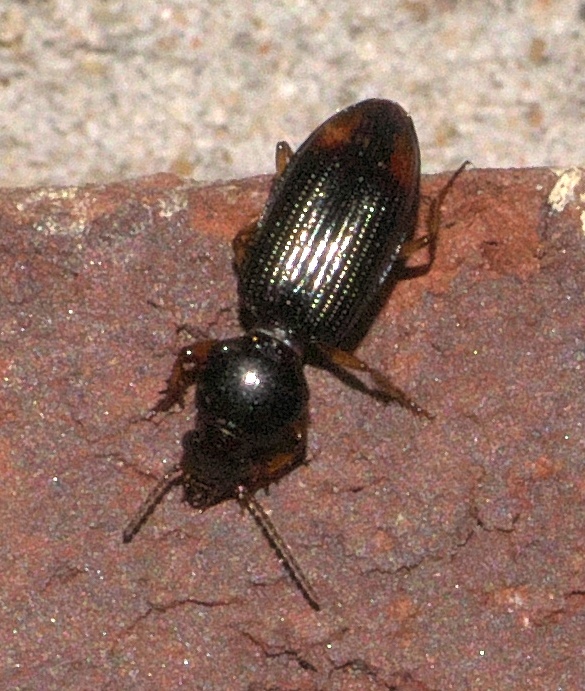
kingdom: Animalia
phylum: Arthropoda
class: Insecta
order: Coleoptera
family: Carabidae
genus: Aspidoglossa
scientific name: Aspidoglossa subangulata
